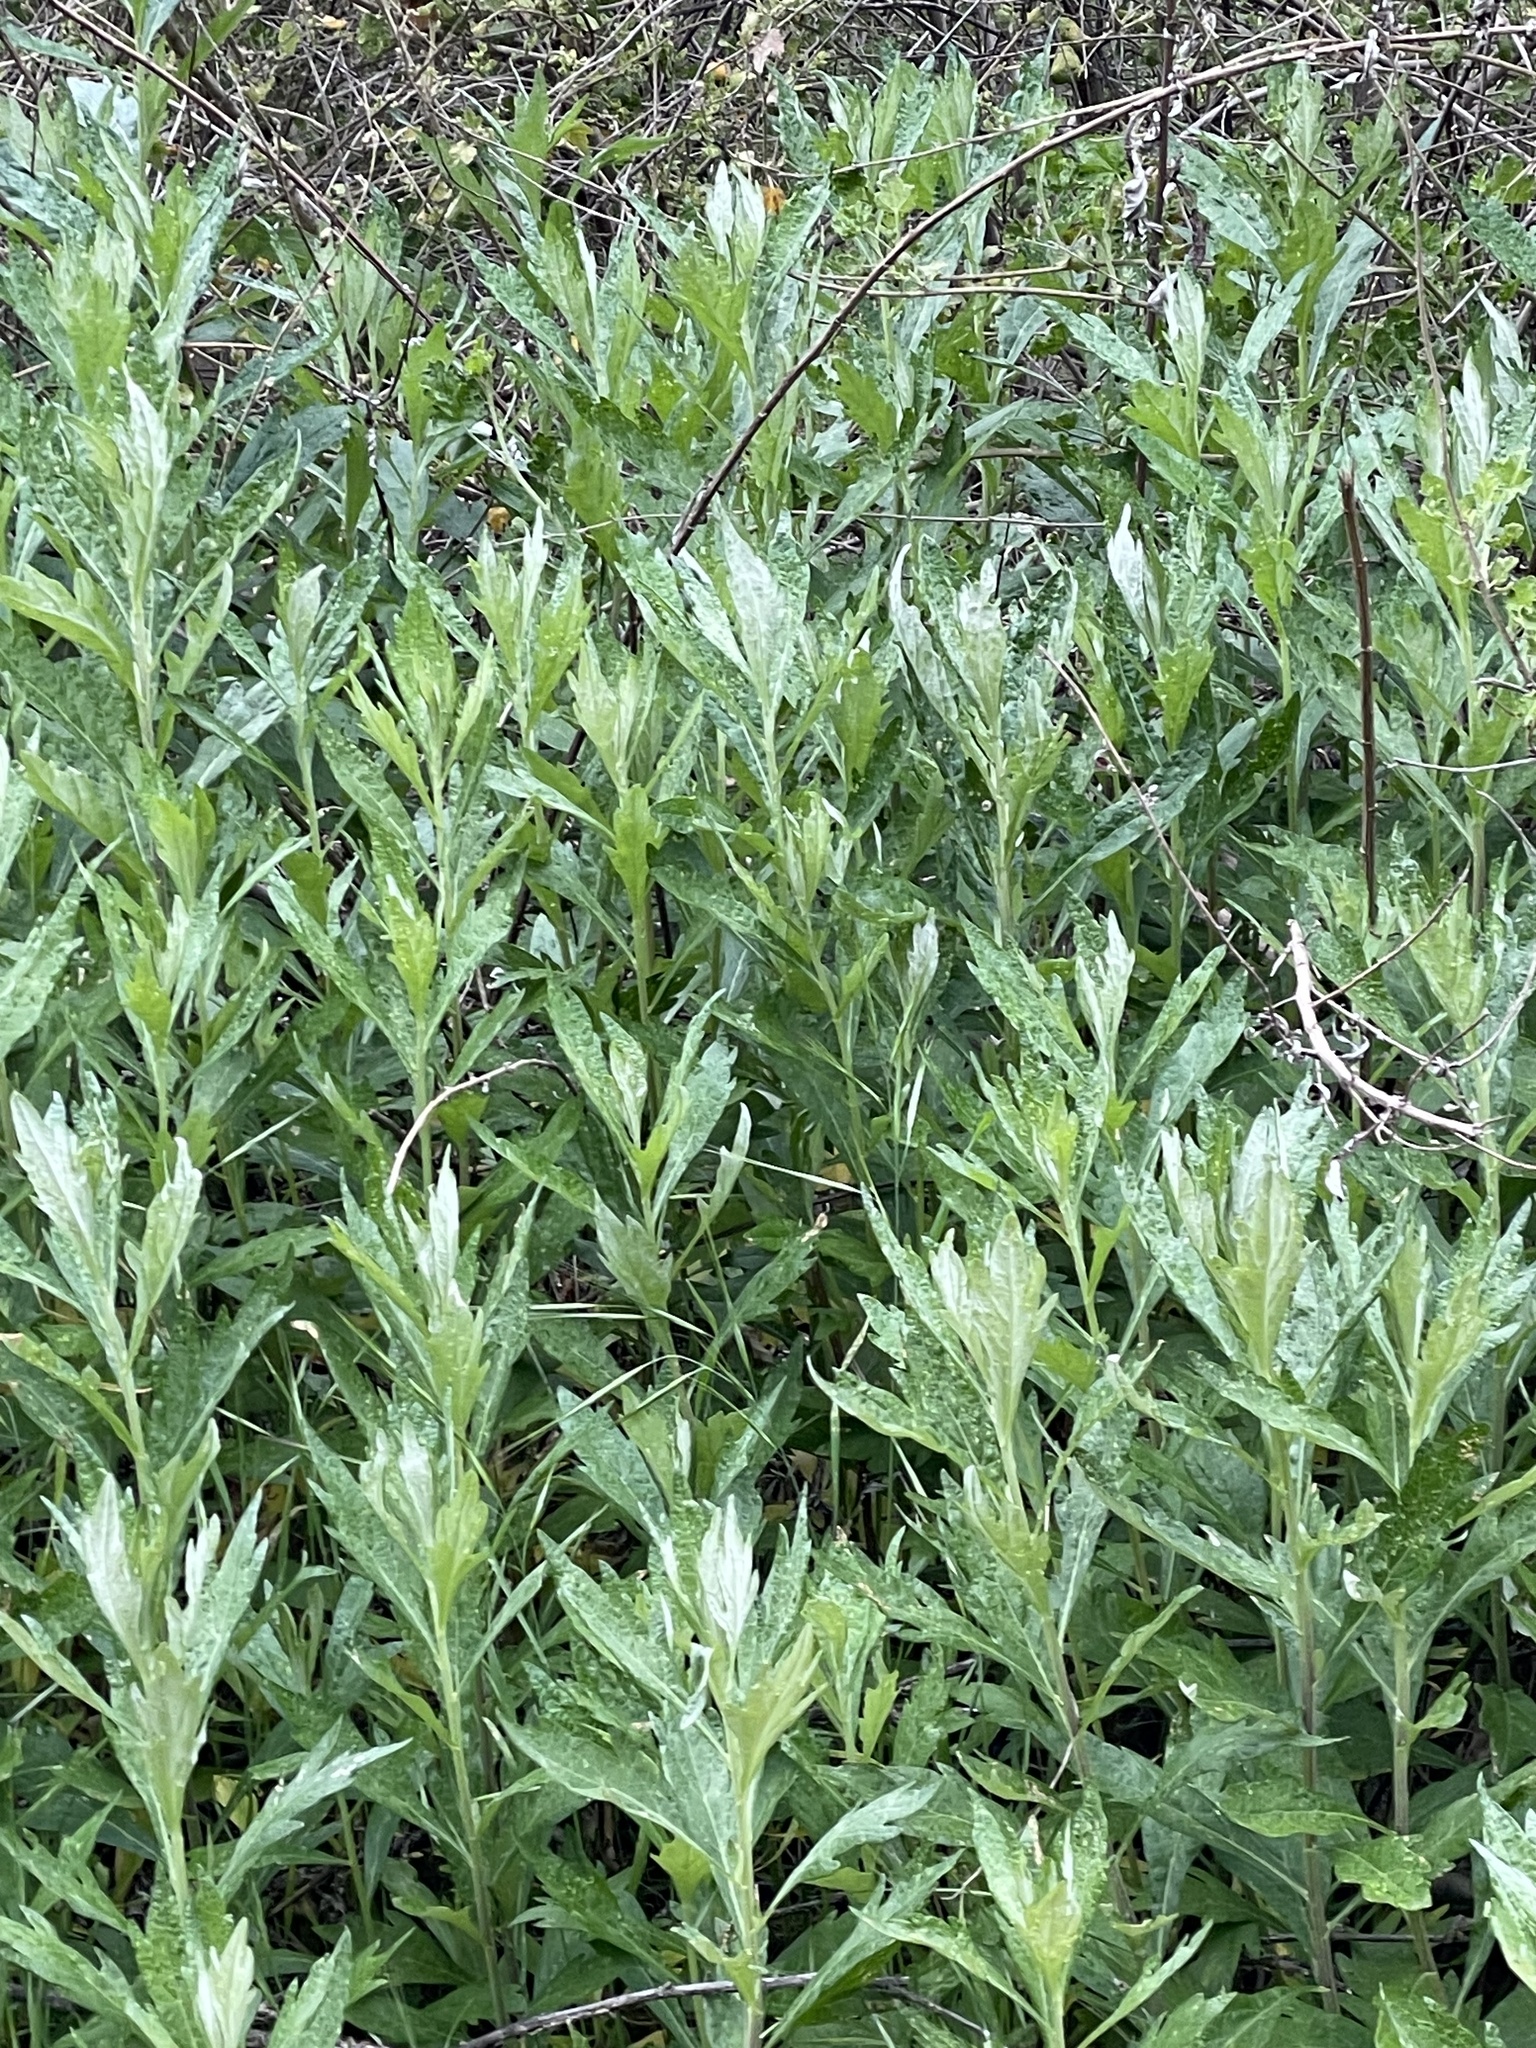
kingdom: Plantae
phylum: Tracheophyta
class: Magnoliopsida
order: Asterales
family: Asteraceae
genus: Artemisia
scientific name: Artemisia douglasiana
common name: Northwest mugwort
